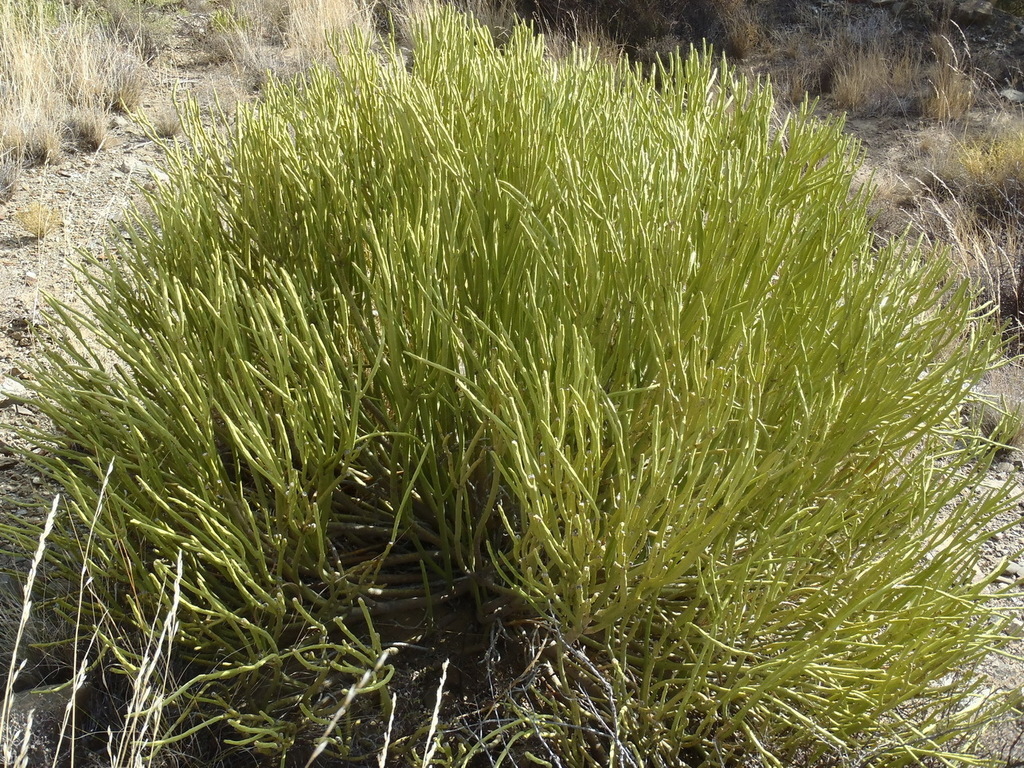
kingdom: Plantae
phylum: Tracheophyta
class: Magnoliopsida
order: Malpighiales
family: Euphorbiaceae
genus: Euphorbia
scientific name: Euphorbia mauritanica
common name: Jackal's-food
